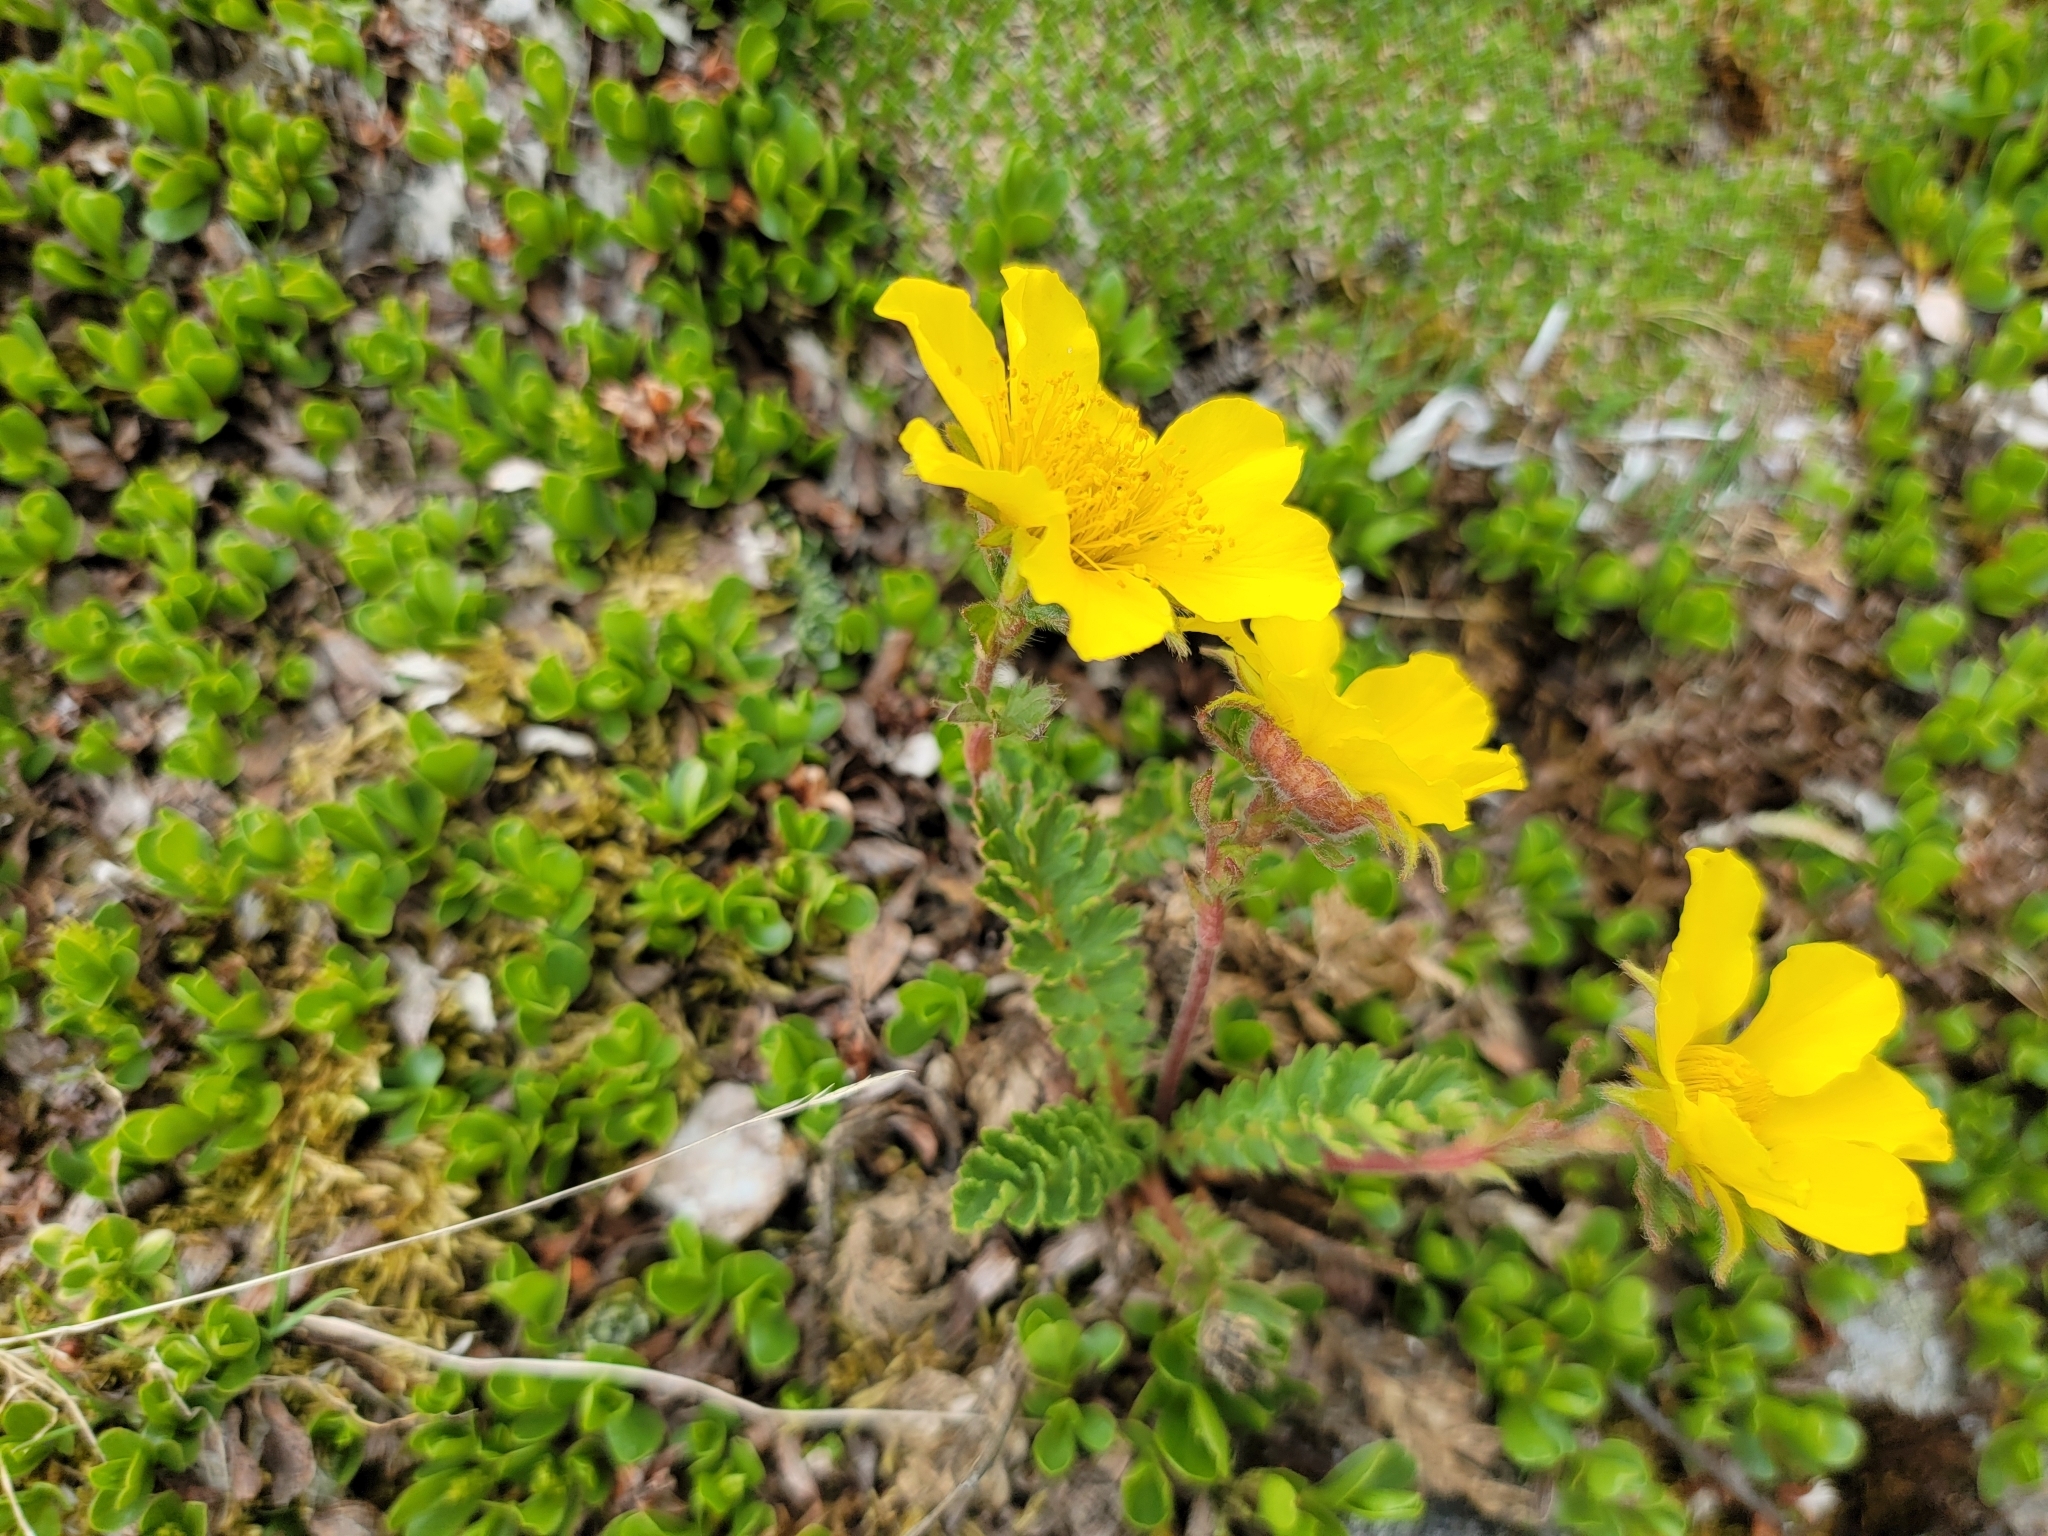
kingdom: Plantae
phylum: Tracheophyta
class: Magnoliopsida
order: Rosales
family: Rosaceae
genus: Geum
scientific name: Geum reptans
